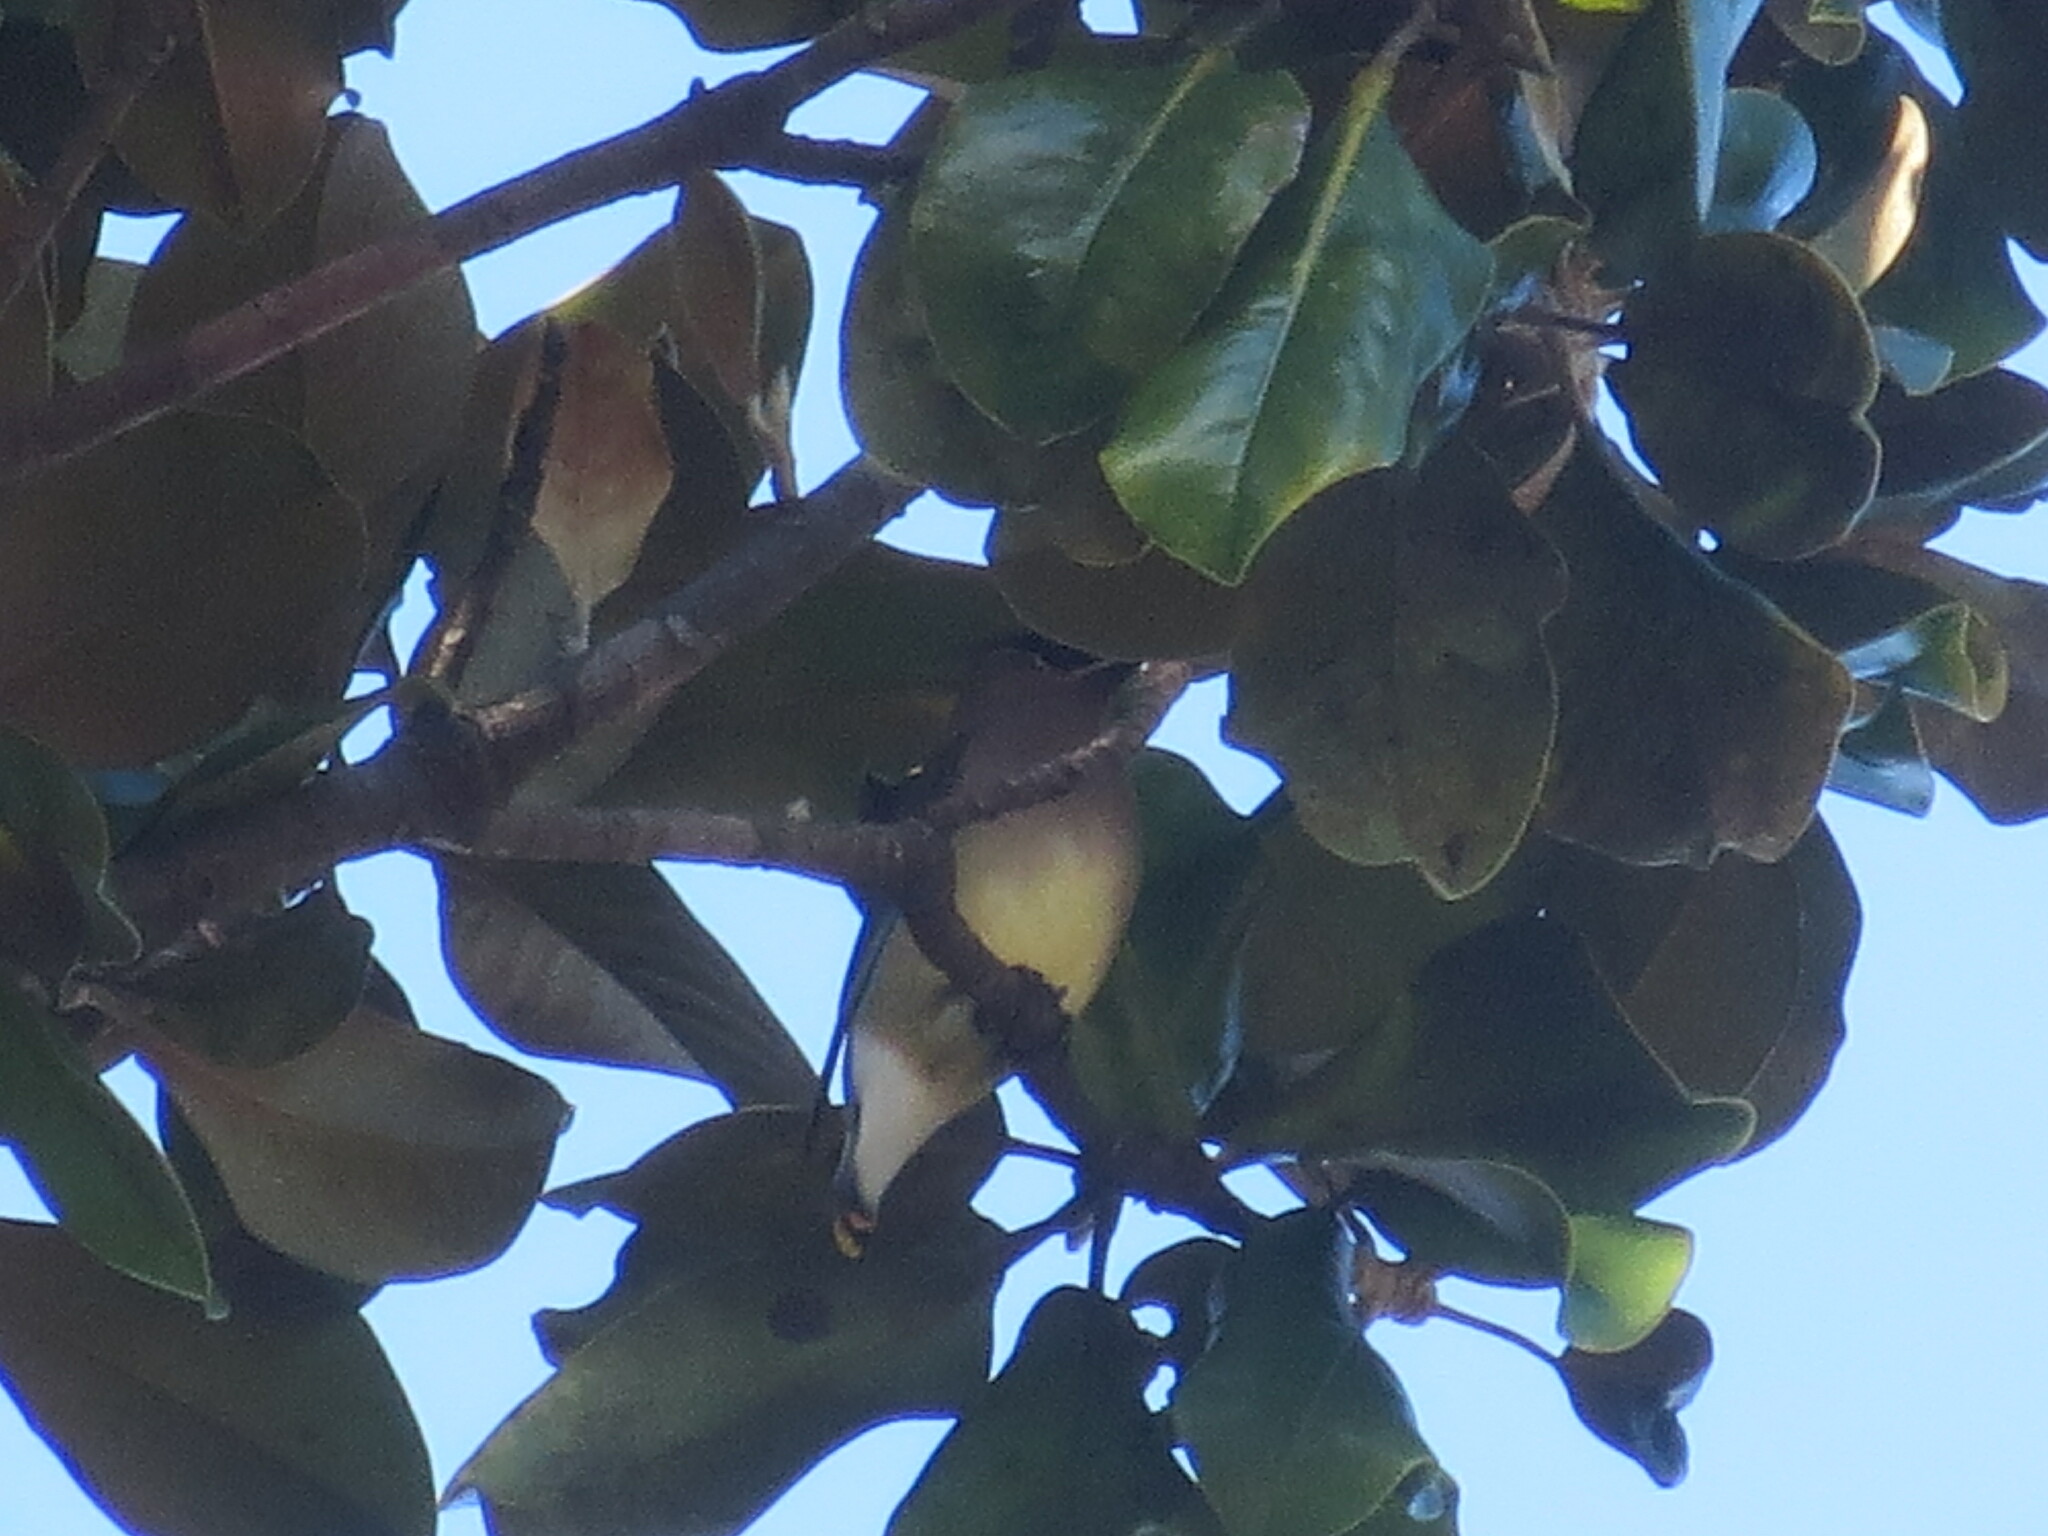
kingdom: Animalia
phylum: Chordata
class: Aves
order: Passeriformes
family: Bombycillidae
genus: Bombycilla
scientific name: Bombycilla cedrorum
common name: Cedar waxwing
